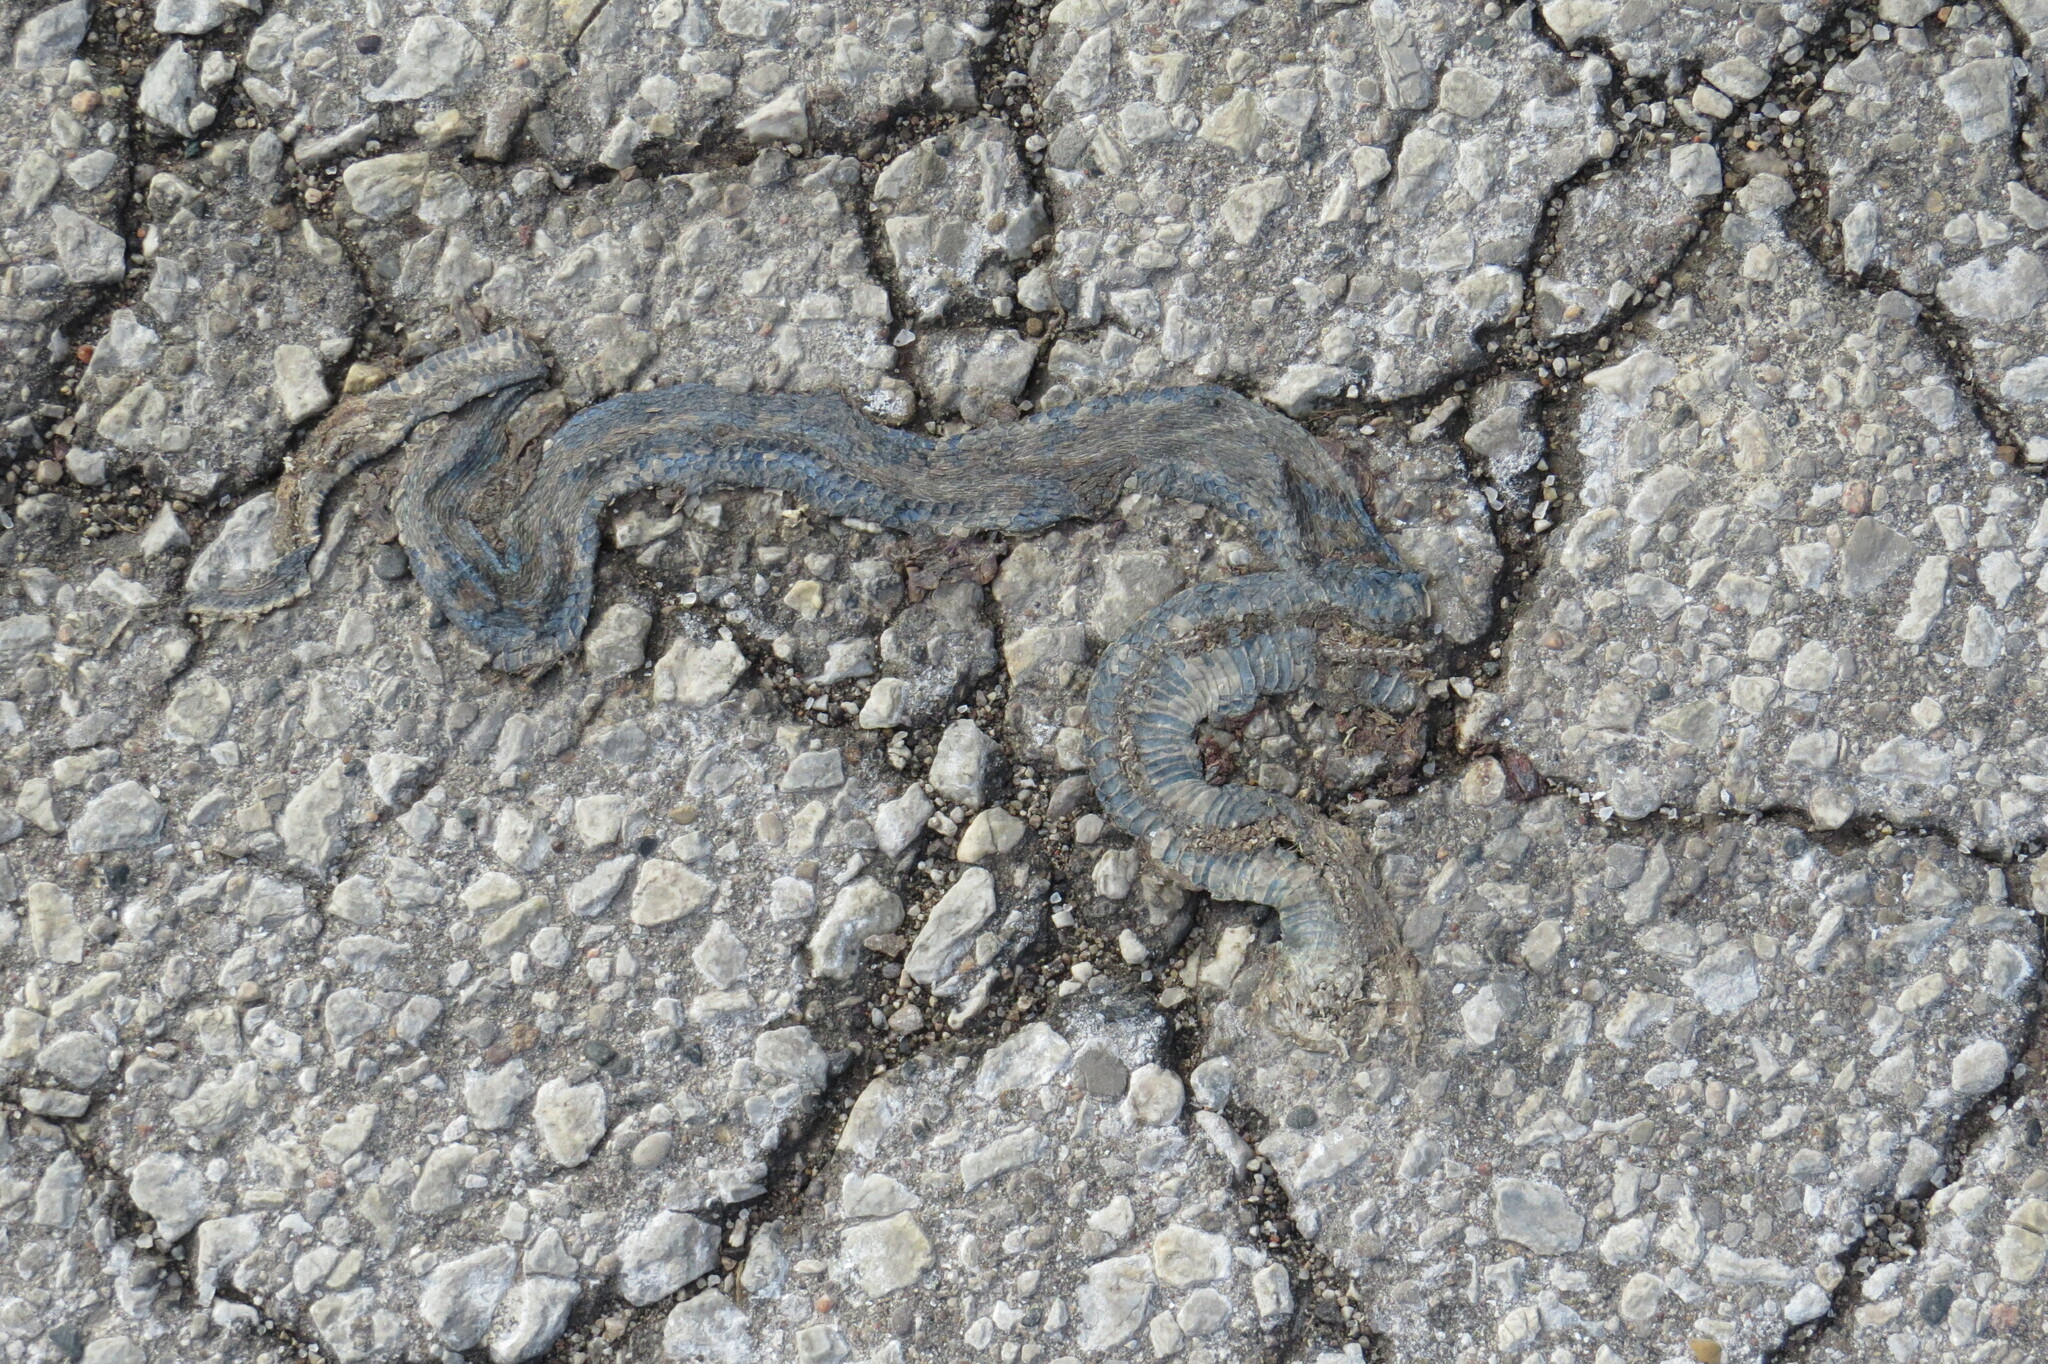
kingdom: Animalia
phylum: Chordata
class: Squamata
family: Colubridae
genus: Thamnophis
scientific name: Thamnophis sirtalis
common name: Common garter snake
